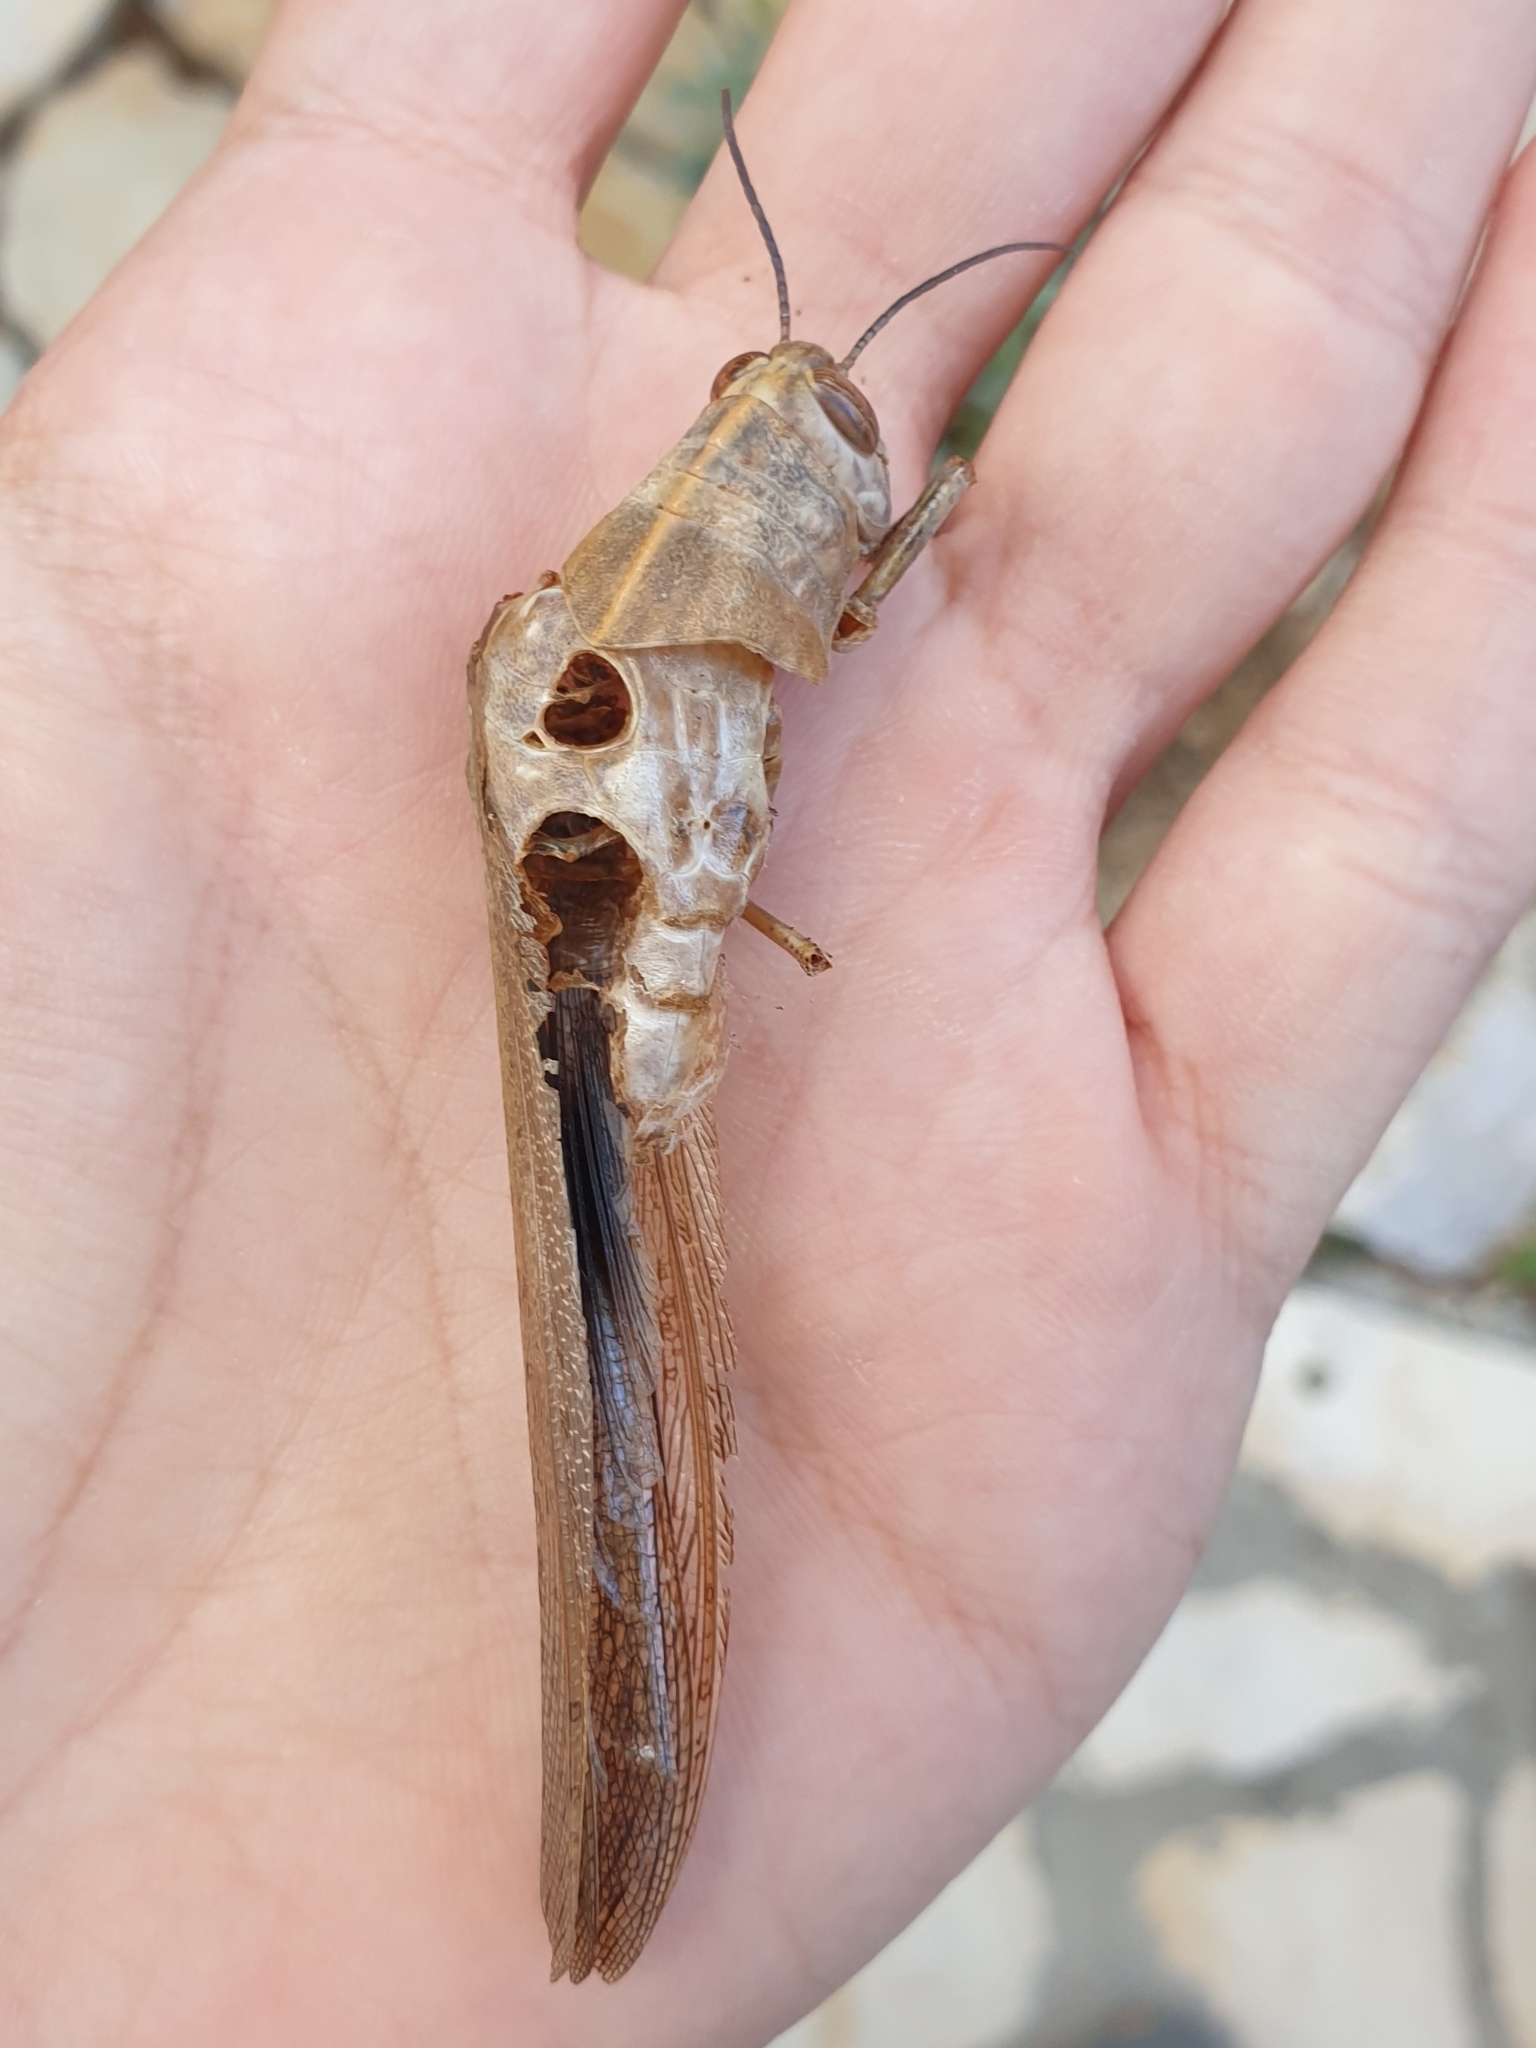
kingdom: Animalia
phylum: Arthropoda
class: Insecta
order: Orthoptera
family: Acrididae
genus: Anacridium
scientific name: Anacridium aegyptium
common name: Egyptian grasshopper
